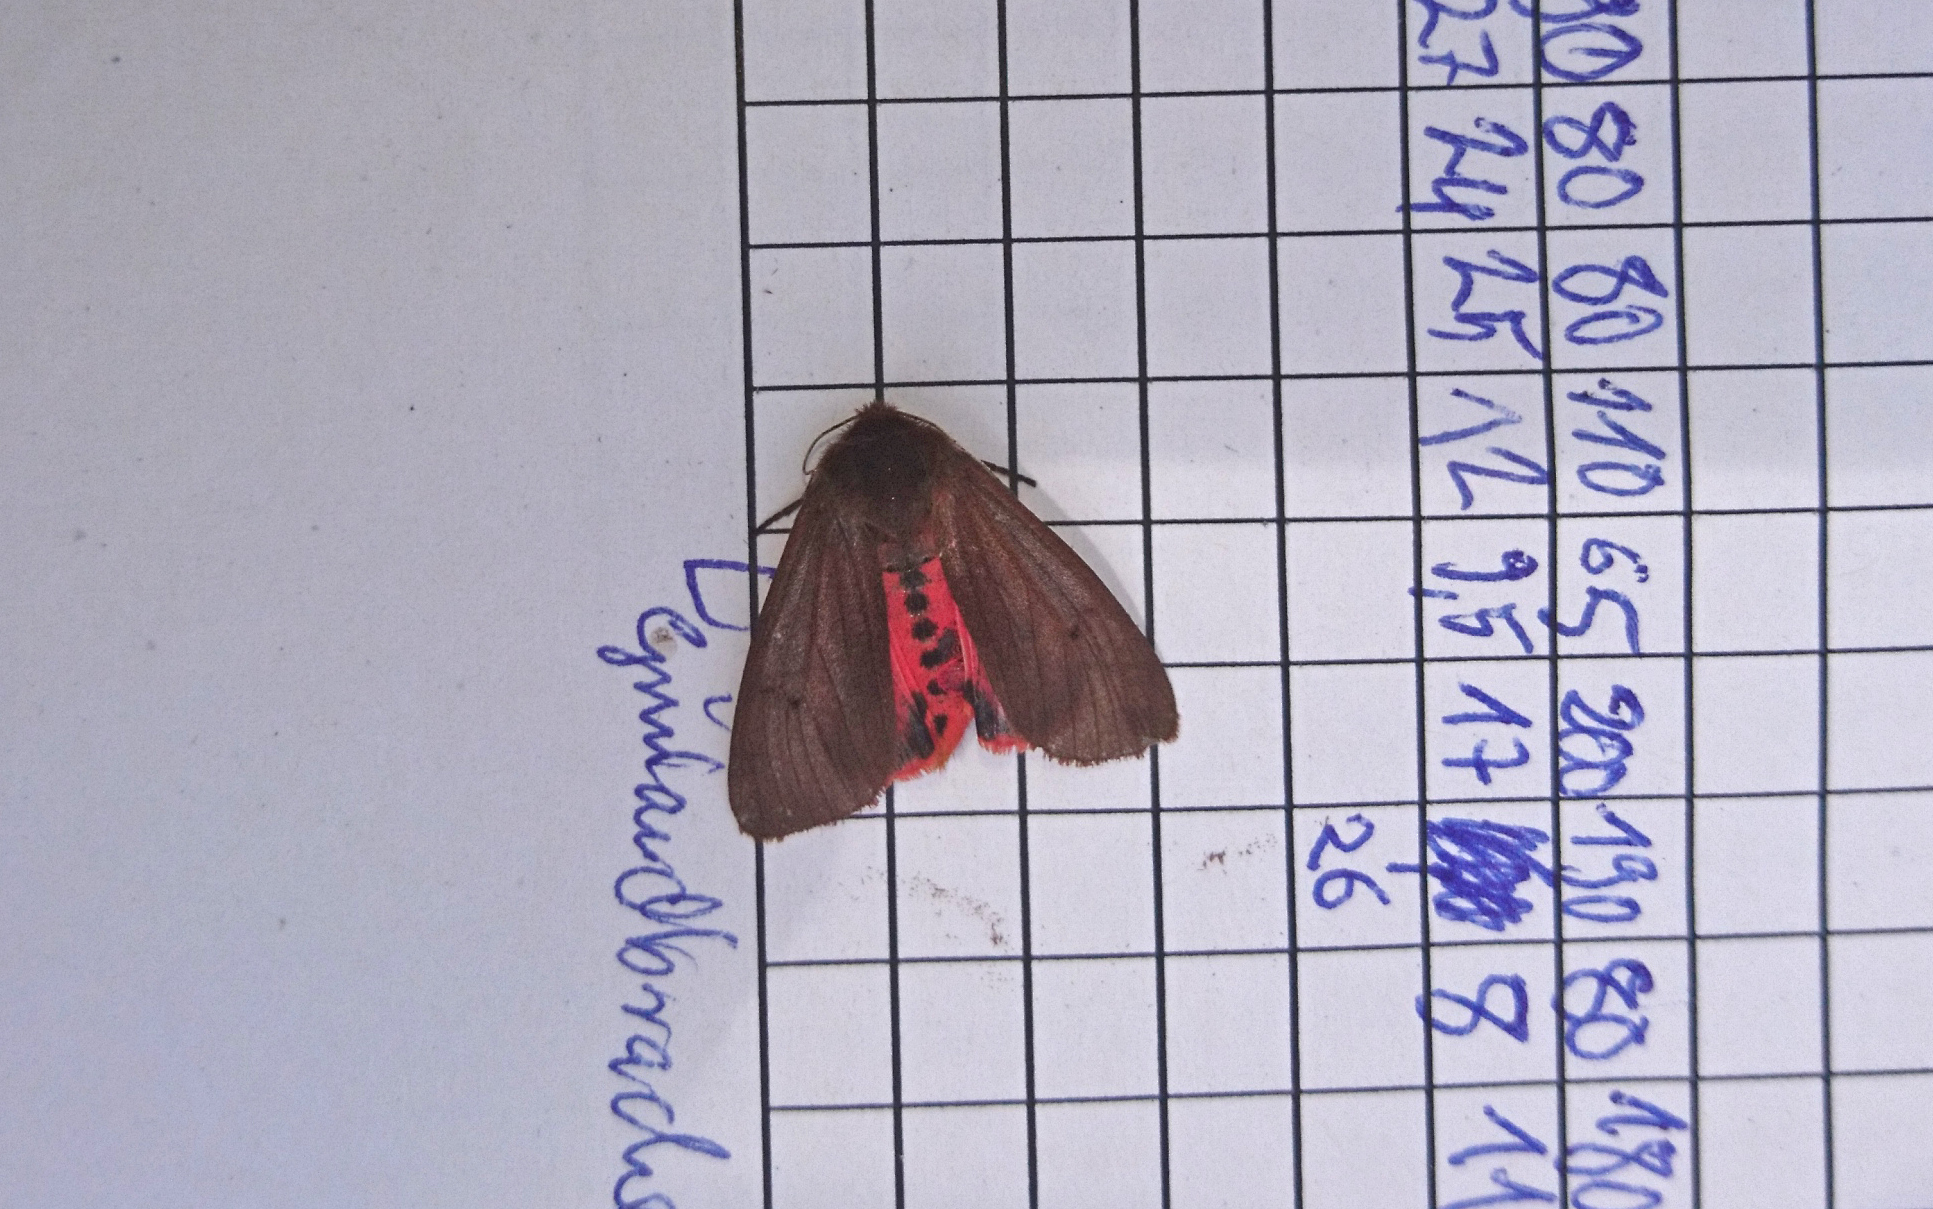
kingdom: Animalia
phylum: Arthropoda
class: Insecta
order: Lepidoptera
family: Erebidae
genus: Phragmatobia
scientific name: Phragmatobia fuliginosa
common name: Ruby tiger
